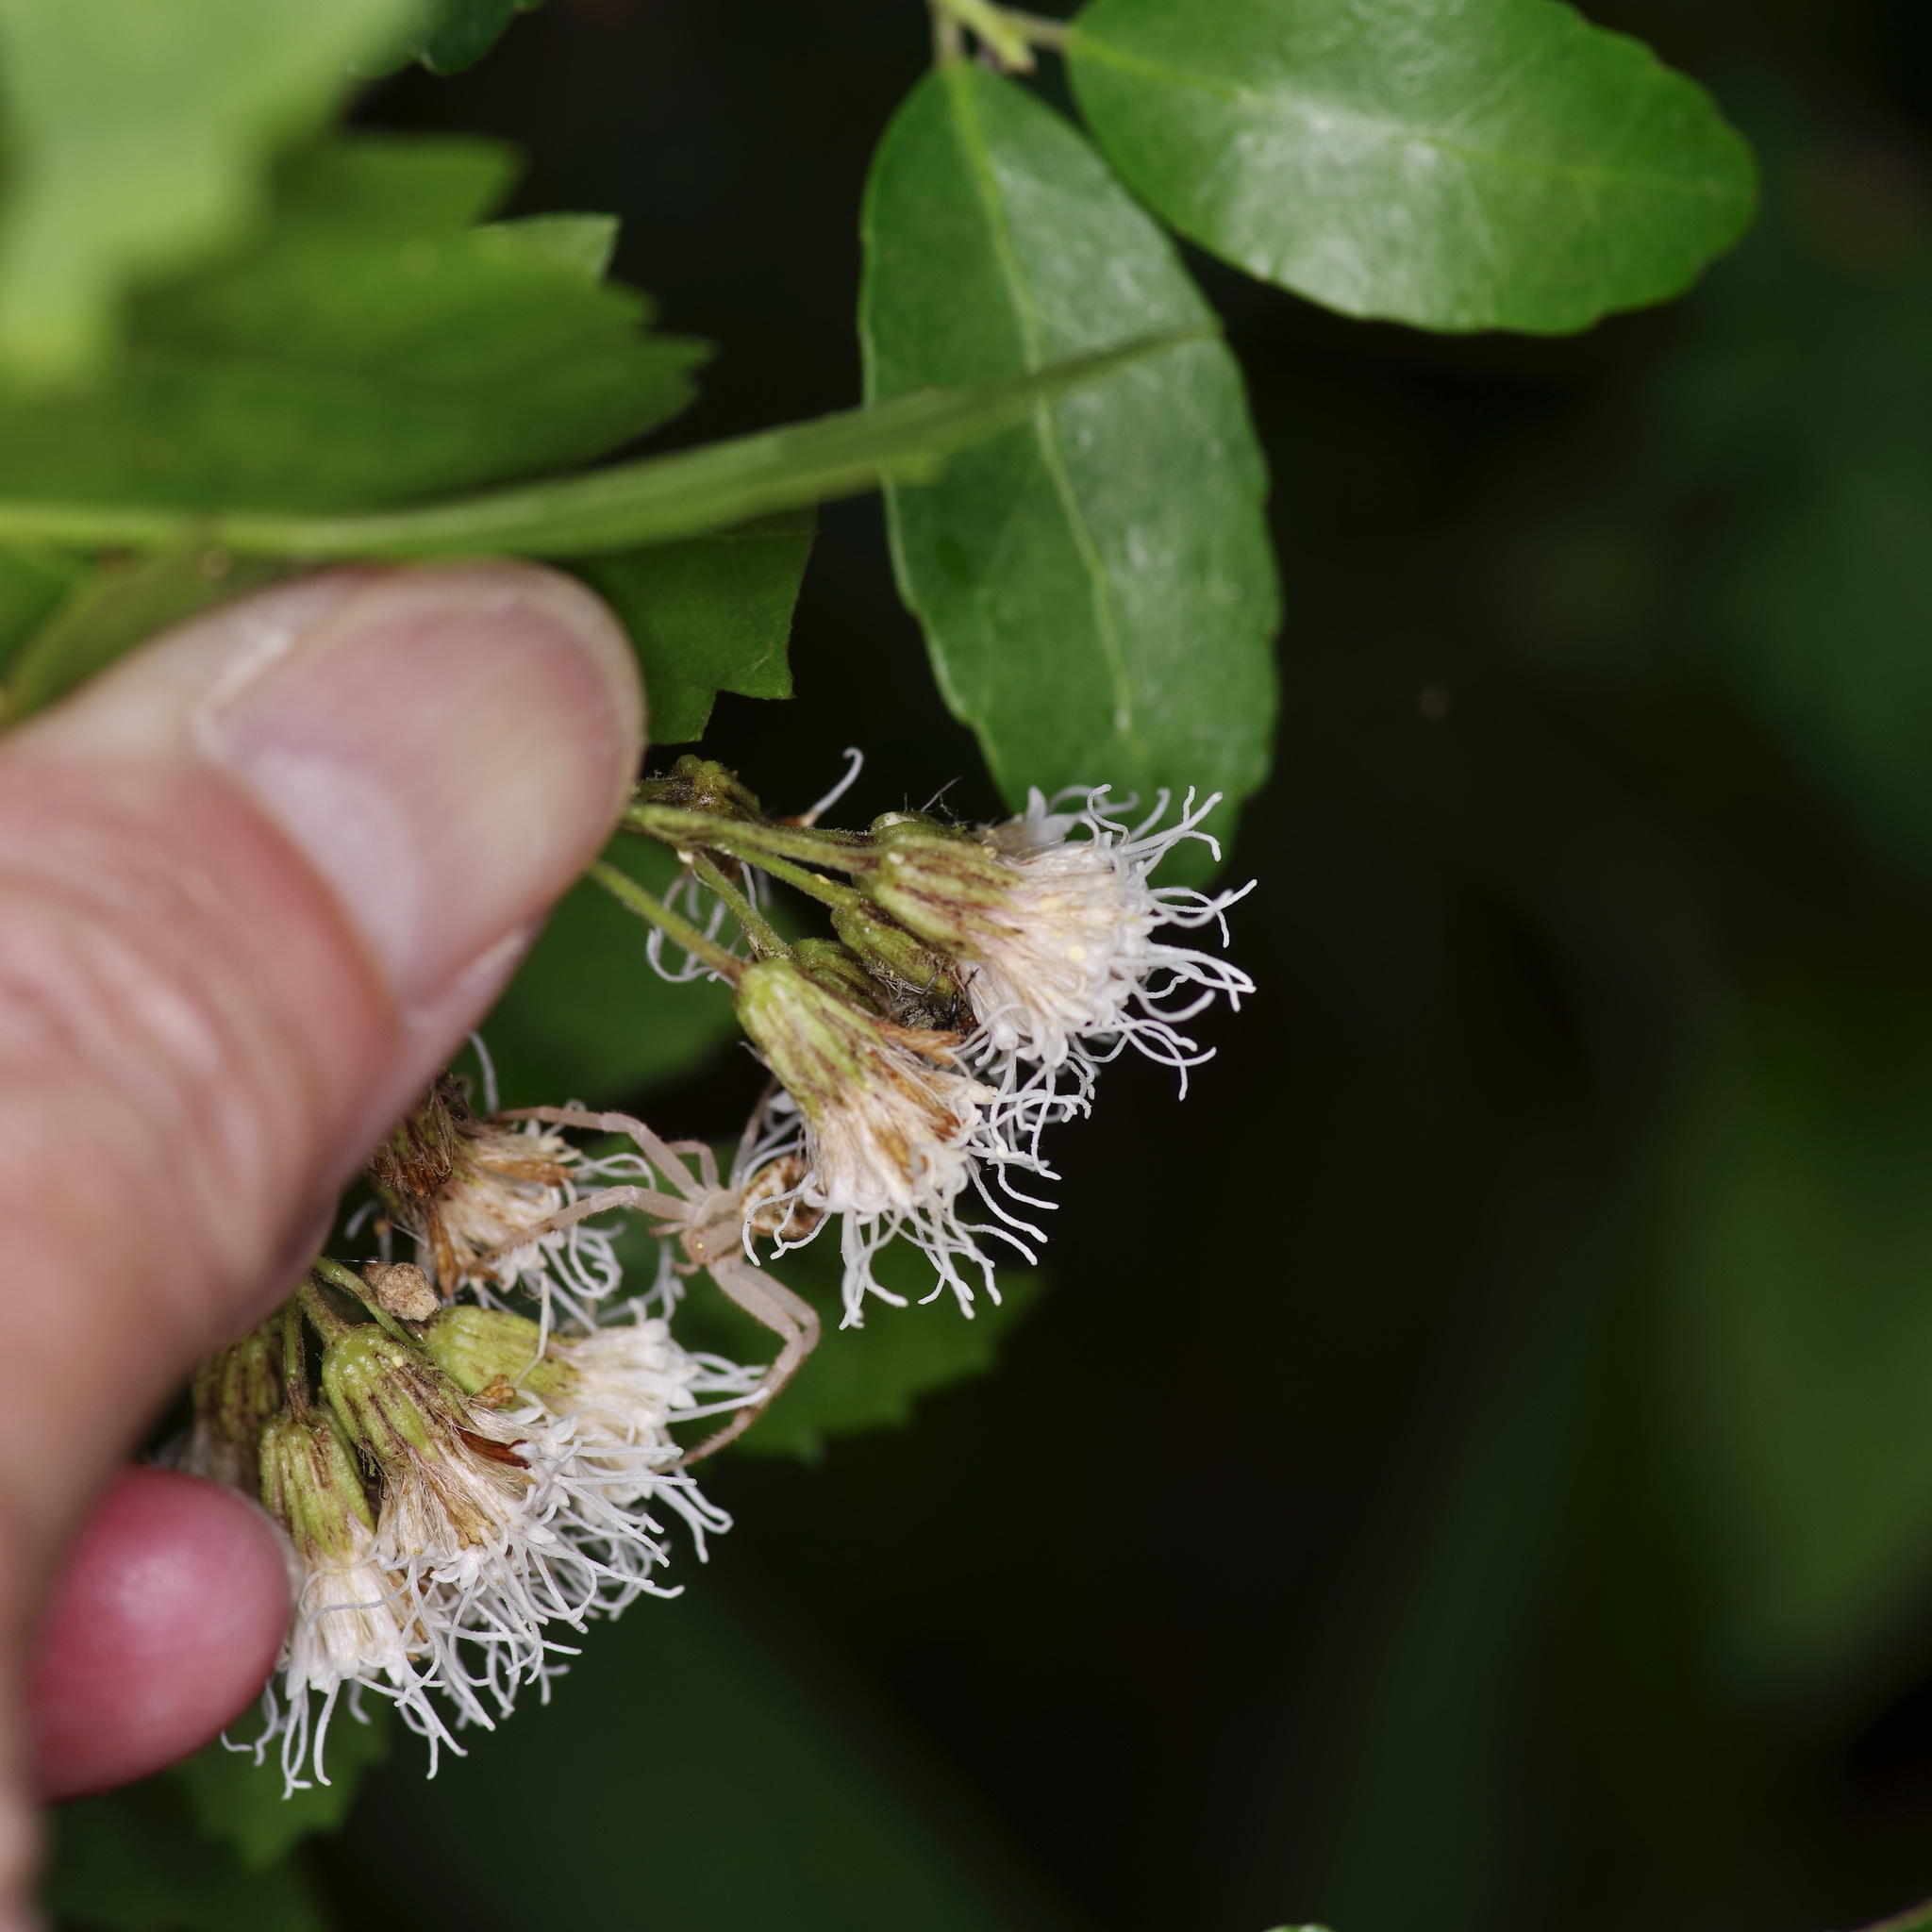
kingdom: Plantae
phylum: Tracheophyta
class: Magnoliopsida
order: Asterales
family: Asteraceae
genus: Ageratina
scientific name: Ageratina havanensis
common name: Havana snakeroot
